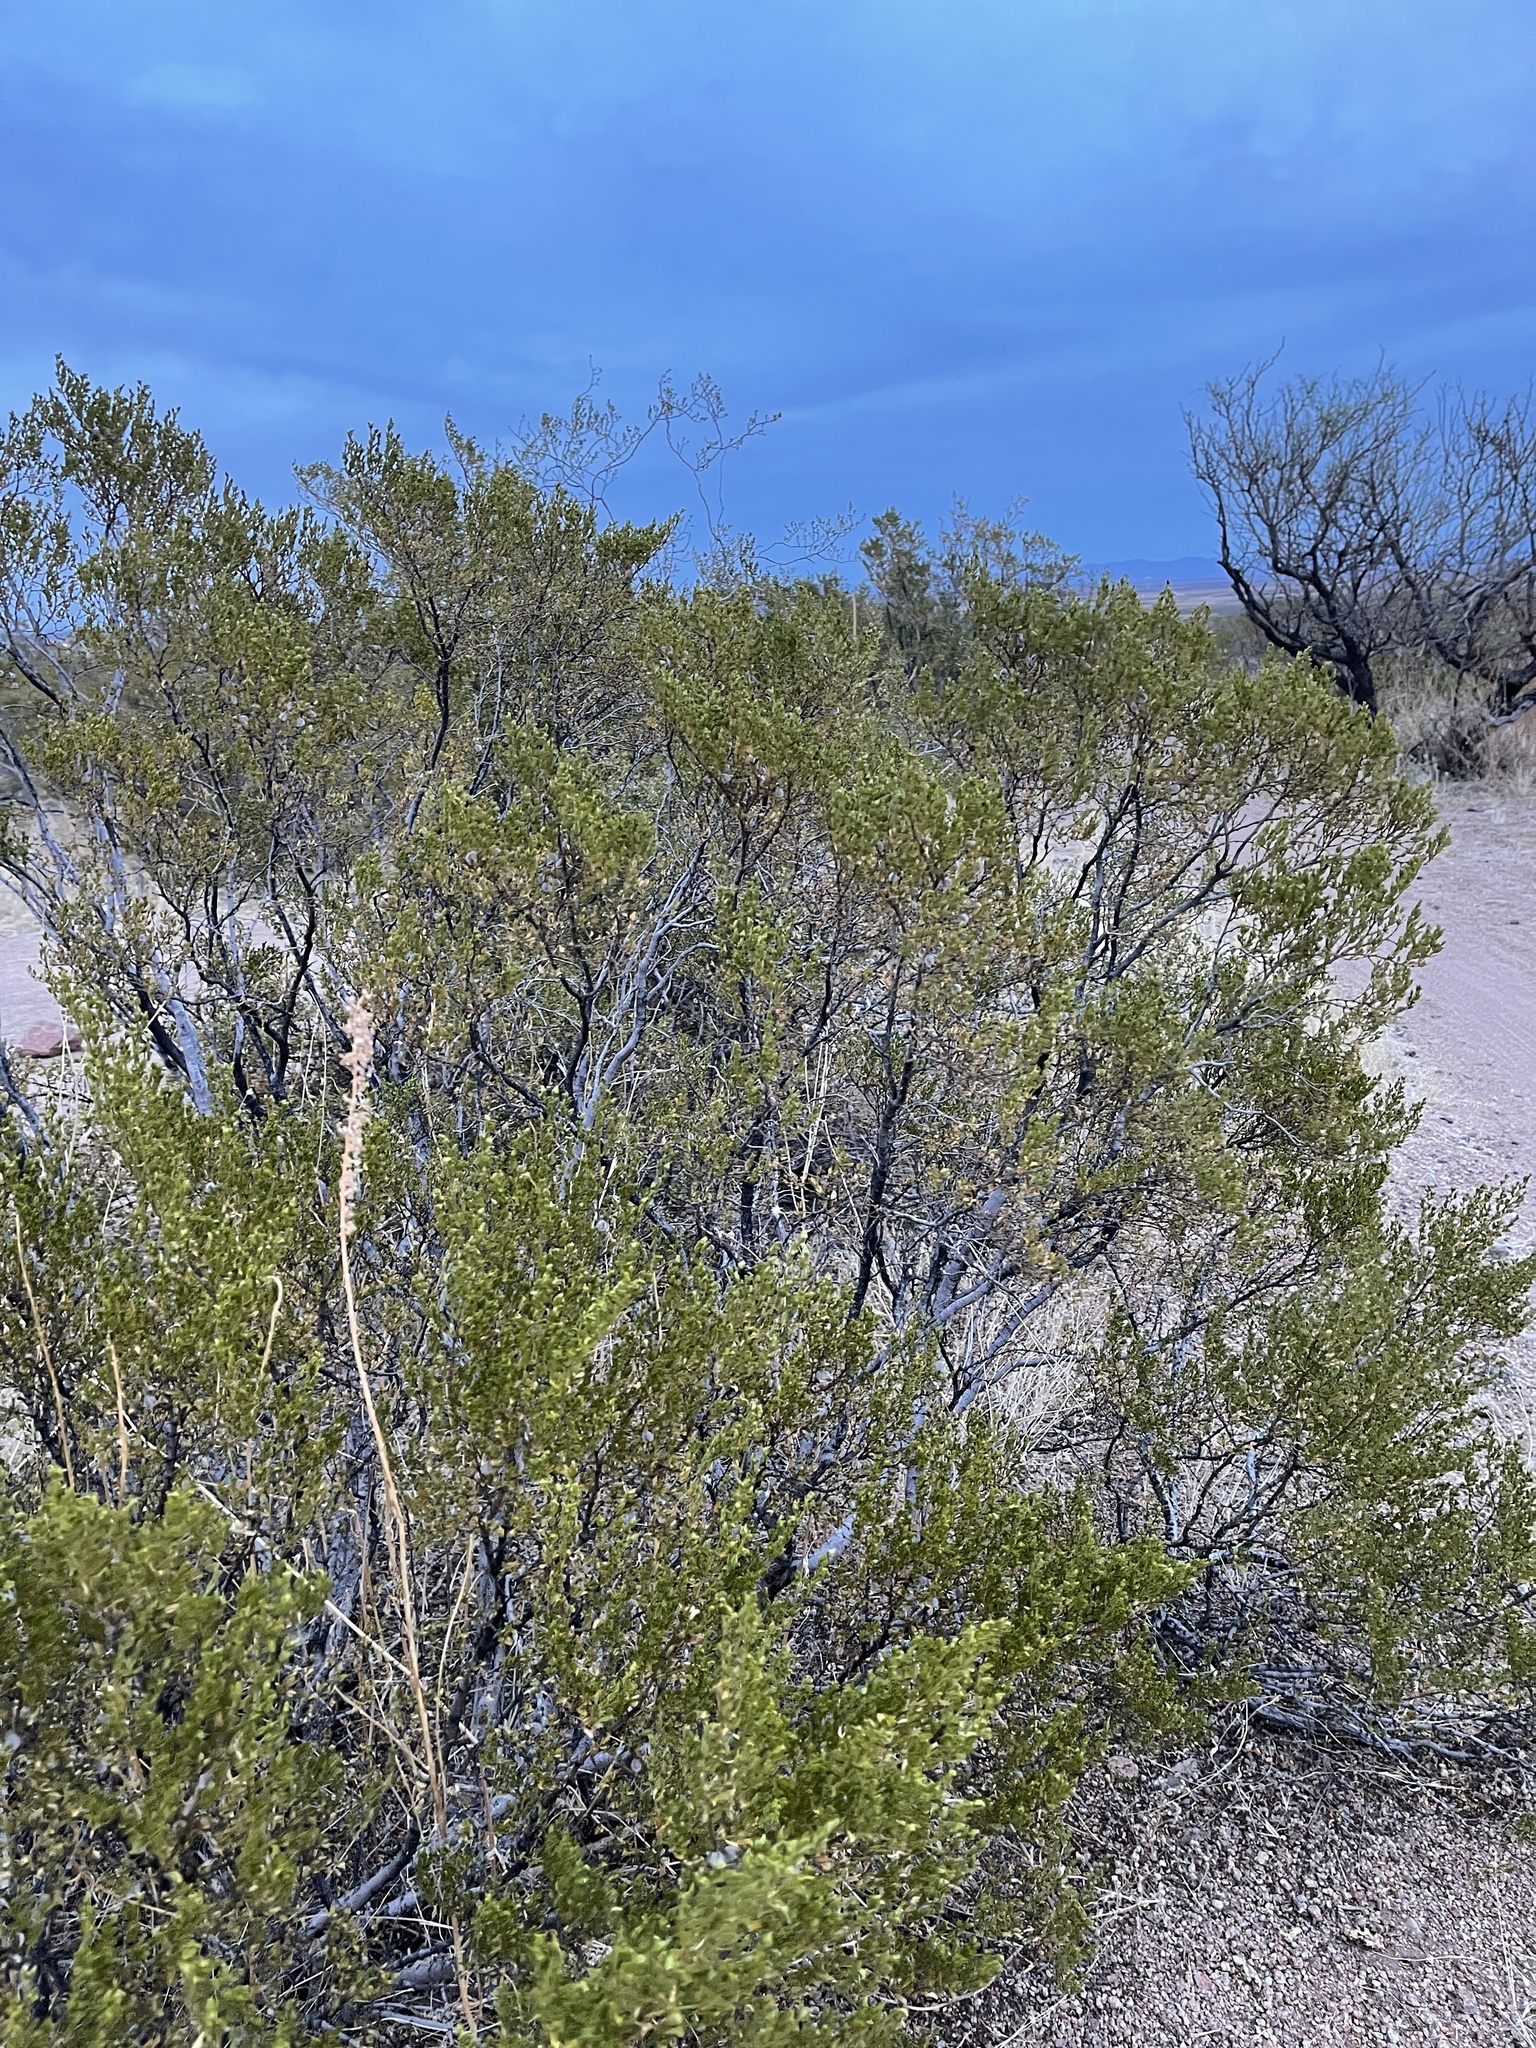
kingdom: Plantae
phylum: Tracheophyta
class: Magnoliopsida
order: Zygophyllales
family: Zygophyllaceae
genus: Larrea
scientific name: Larrea tridentata
